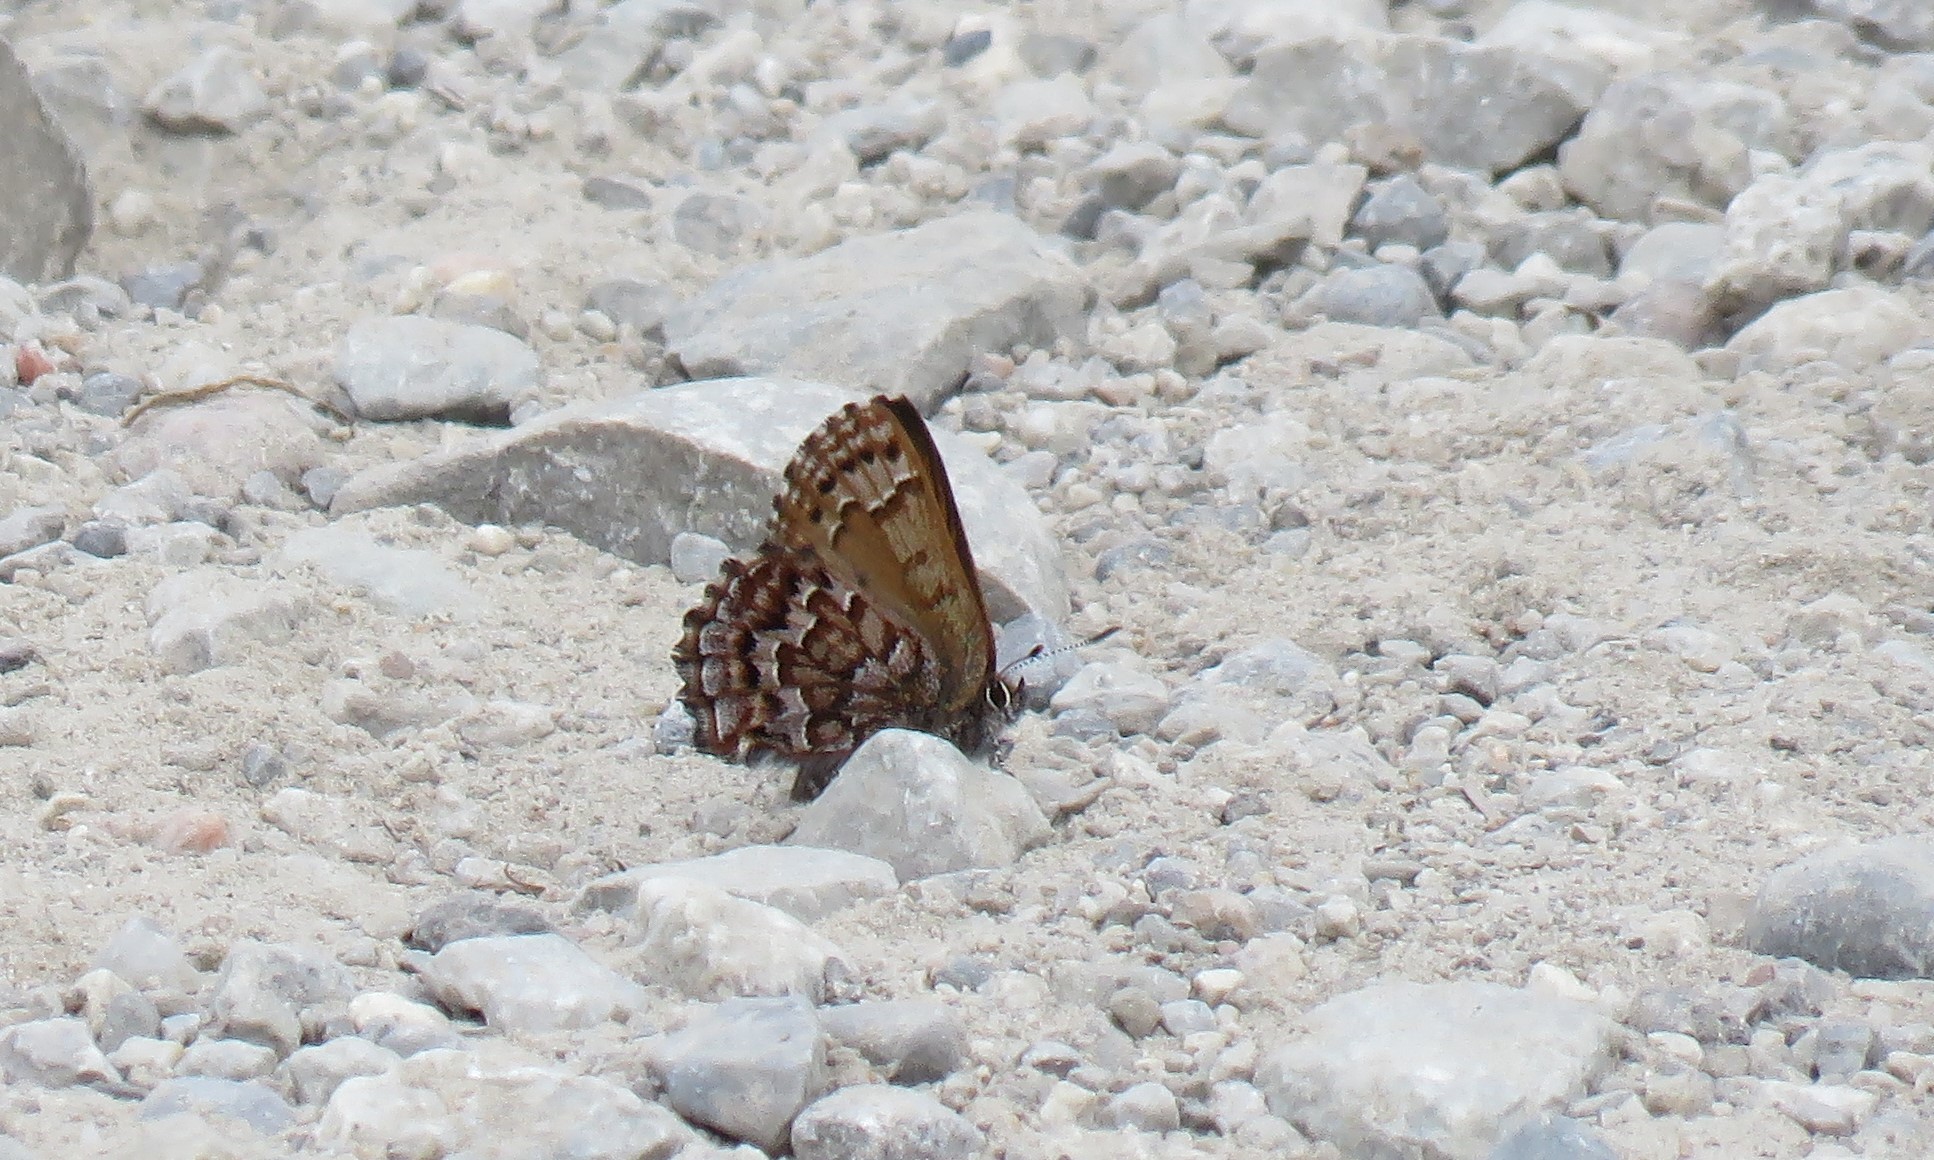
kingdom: Animalia
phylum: Arthropoda
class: Insecta
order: Lepidoptera
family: Lycaenidae
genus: Incisalia
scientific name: Incisalia niphon
